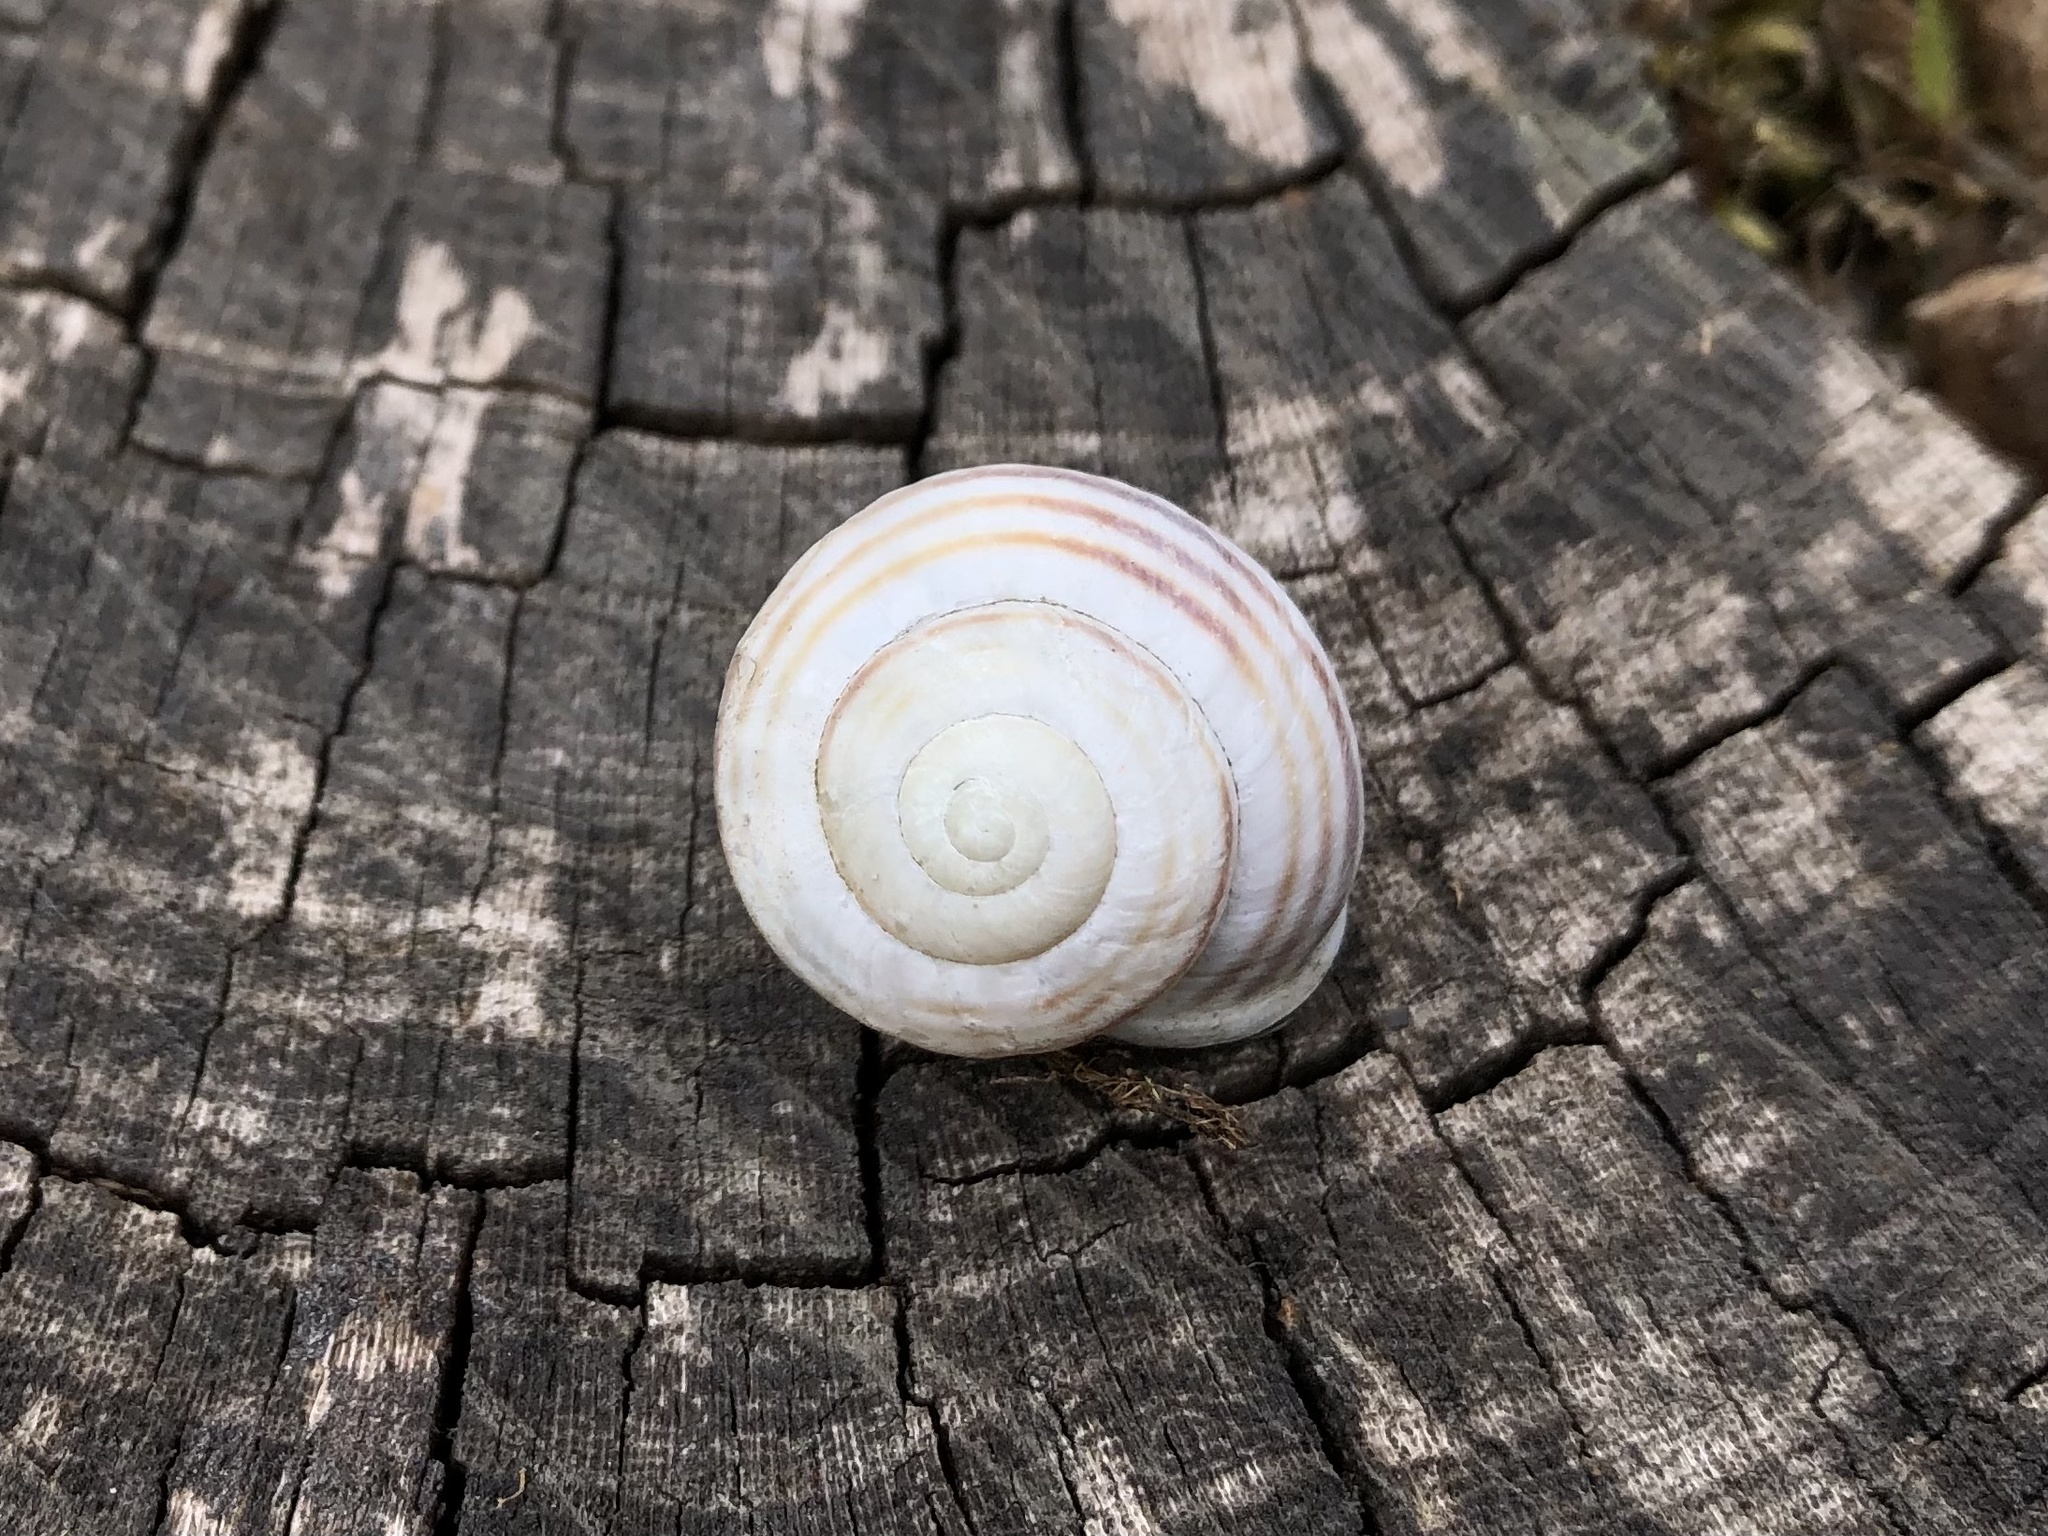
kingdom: Animalia
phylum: Mollusca
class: Gastropoda
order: Stylommatophora
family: Helicidae
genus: Cepaea
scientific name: Cepaea hortensis
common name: White-lip gardensnail
